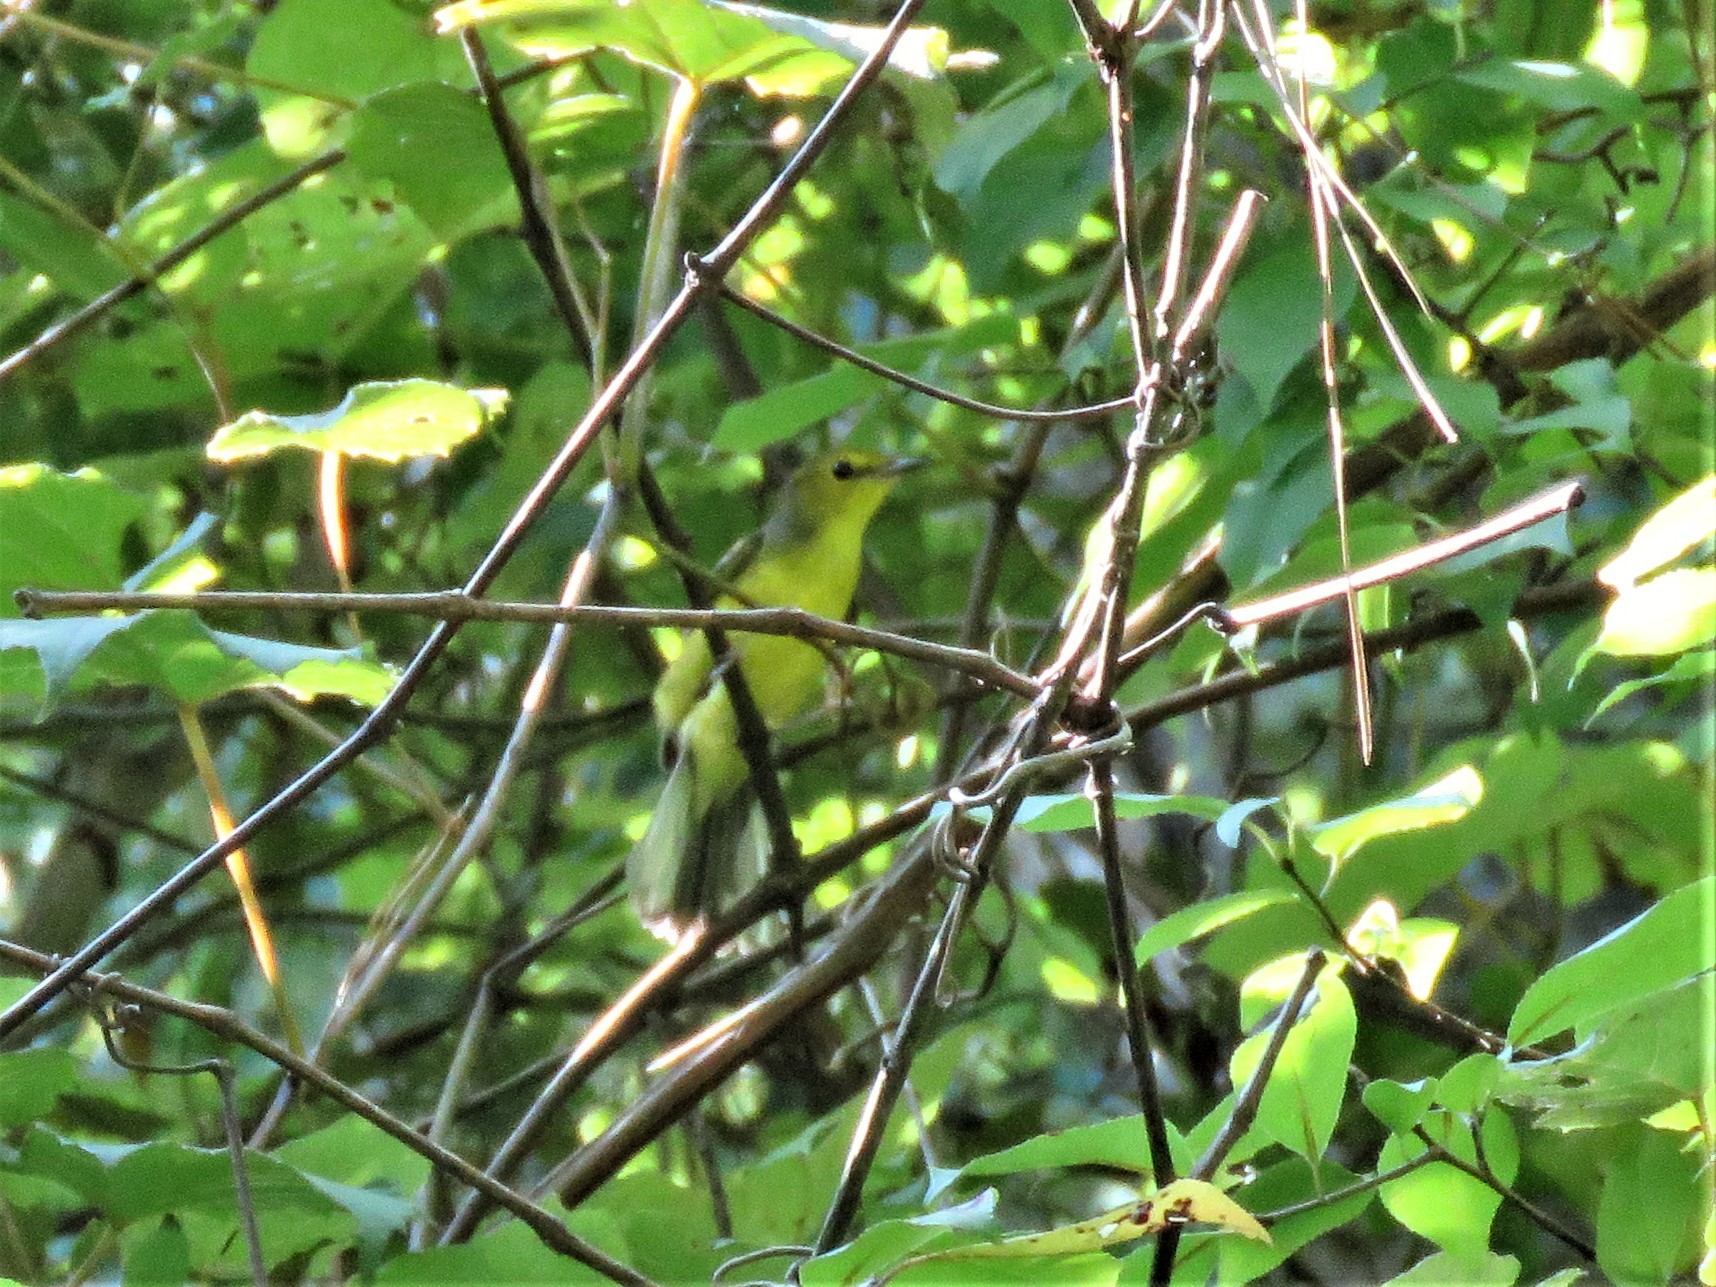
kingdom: Animalia
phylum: Chordata
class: Aves
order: Passeriformes
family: Parulidae
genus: Setophaga
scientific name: Setophaga citrina
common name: Hooded warbler
